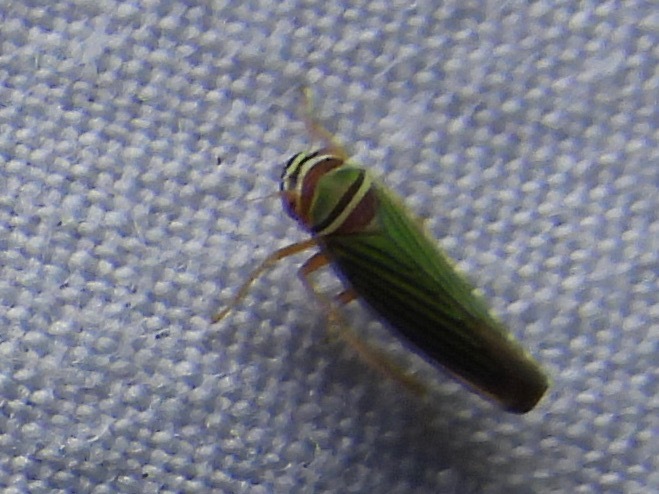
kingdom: Animalia
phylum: Arthropoda
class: Insecta
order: Hemiptera
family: Cicadellidae
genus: Tylozygus
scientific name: Tylozygus fuscolineellus
